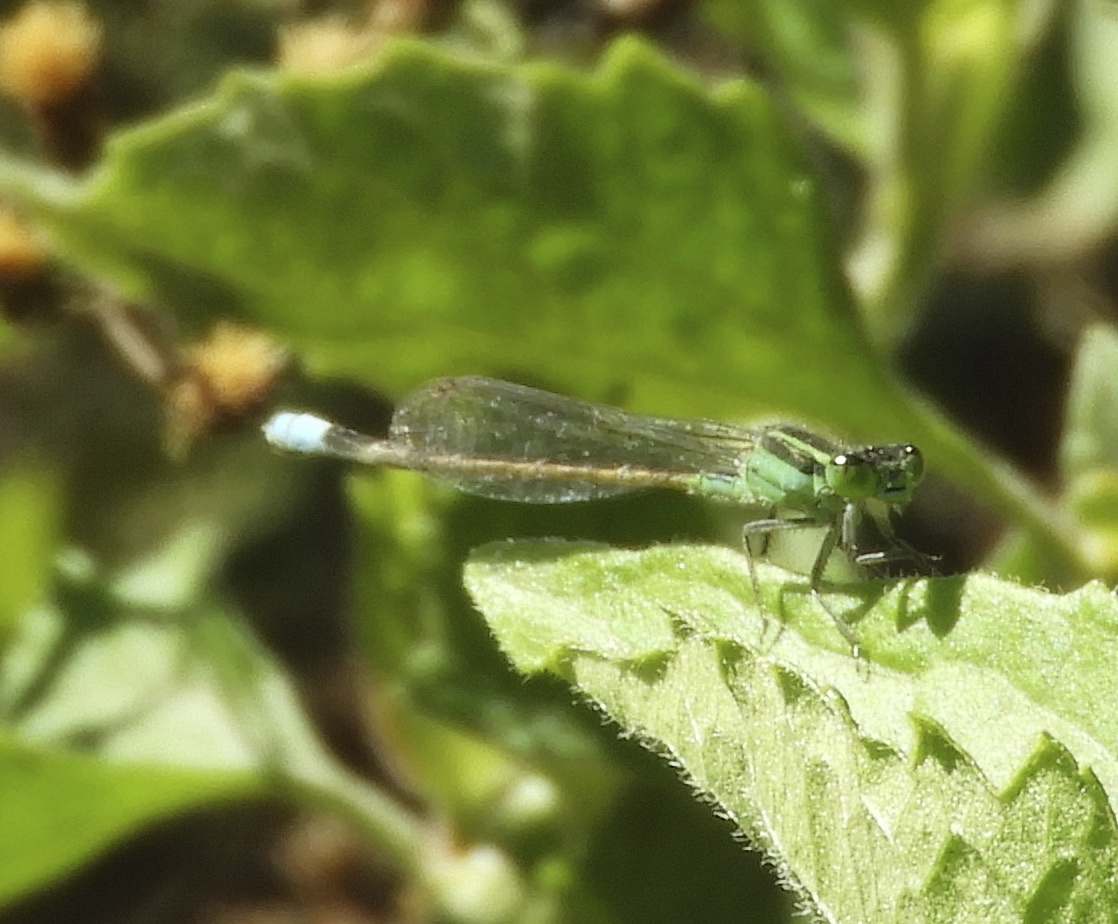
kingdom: Animalia
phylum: Arthropoda
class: Insecta
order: Odonata
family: Coenagrionidae
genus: Ischnura
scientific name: Ischnura hastata
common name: Citrine forktail
